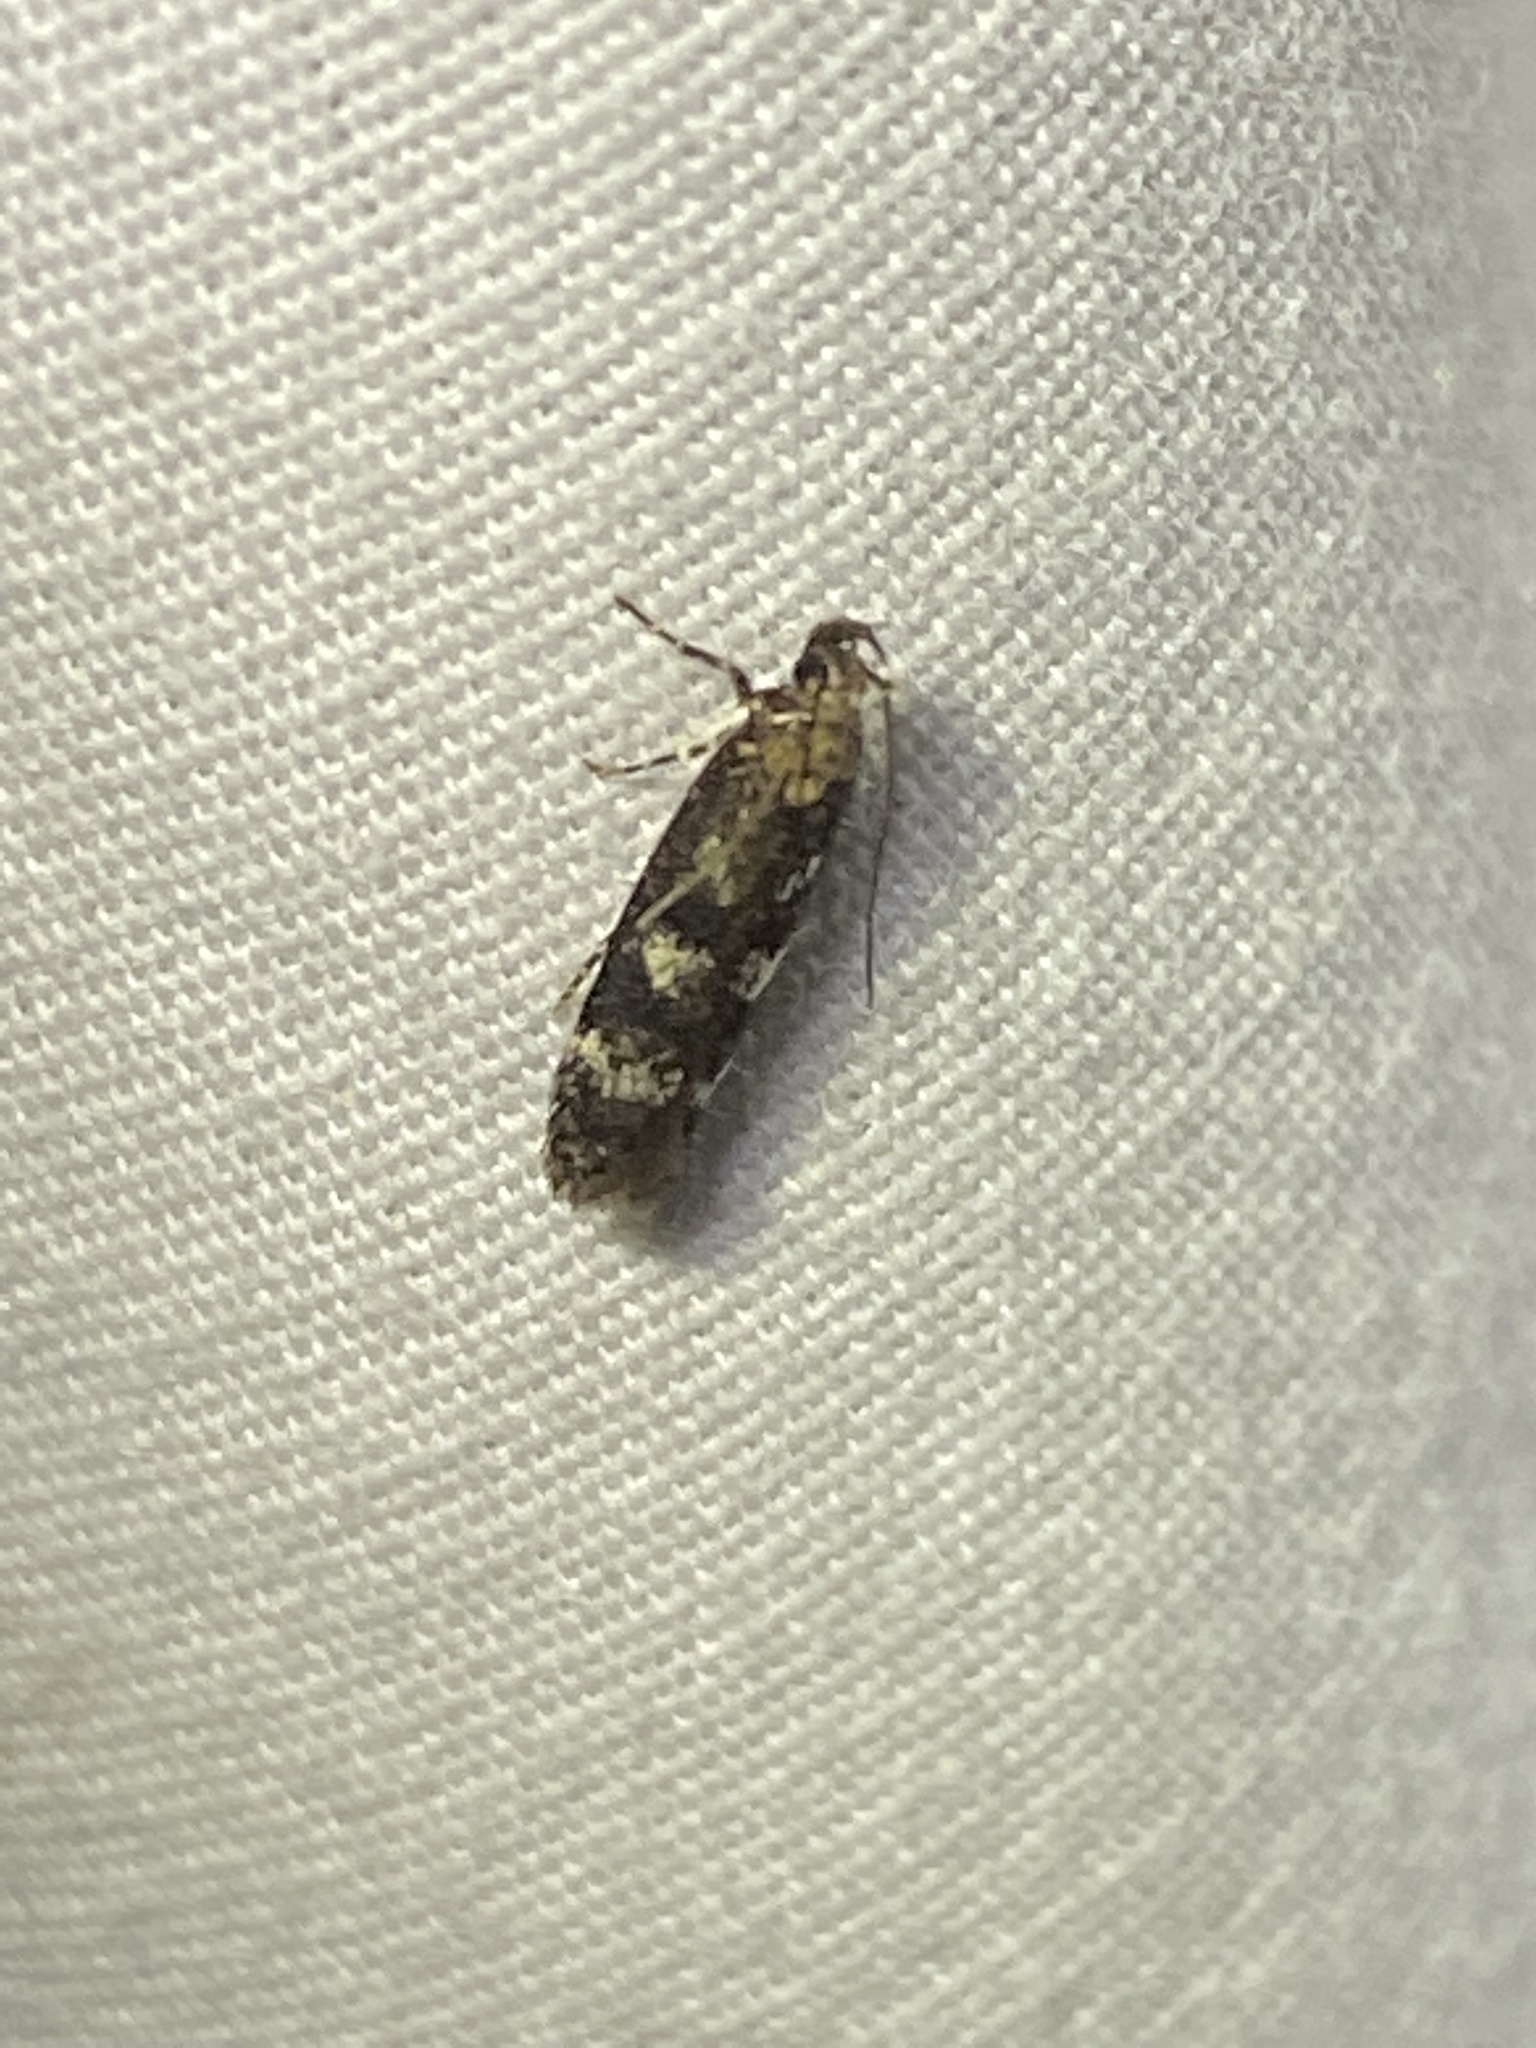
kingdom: Animalia
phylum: Arthropoda
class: Insecta
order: Lepidoptera
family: Gelechiidae
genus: Fascista
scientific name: Fascista bimaculella
